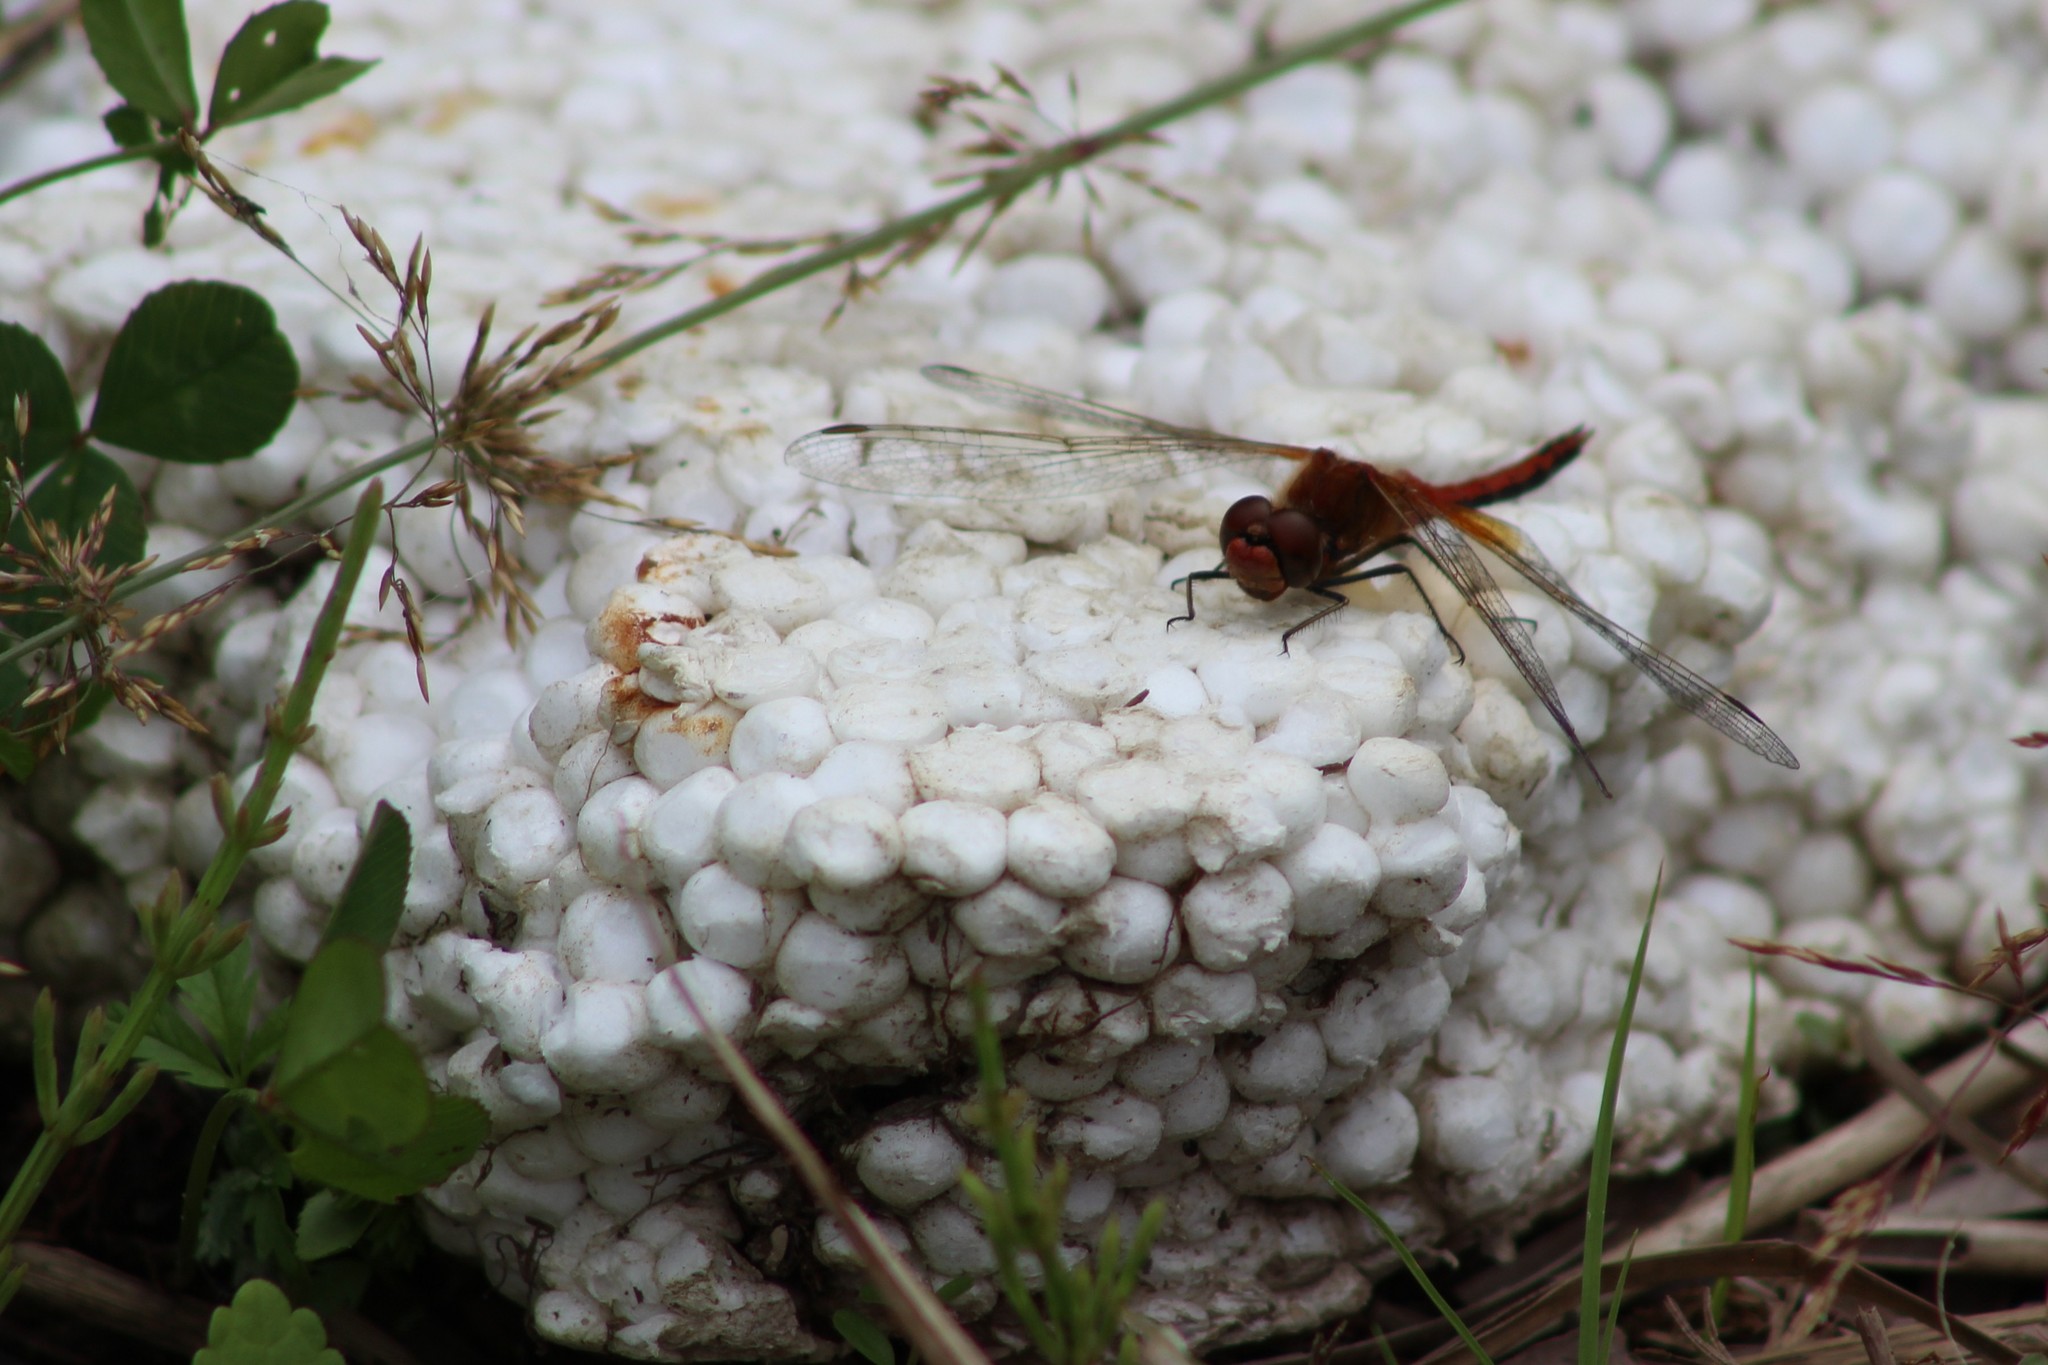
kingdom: Animalia
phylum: Arthropoda
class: Insecta
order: Odonata
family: Libellulidae
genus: Sympetrum
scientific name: Sympetrum flaveolum
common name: Yellow-winged darter
